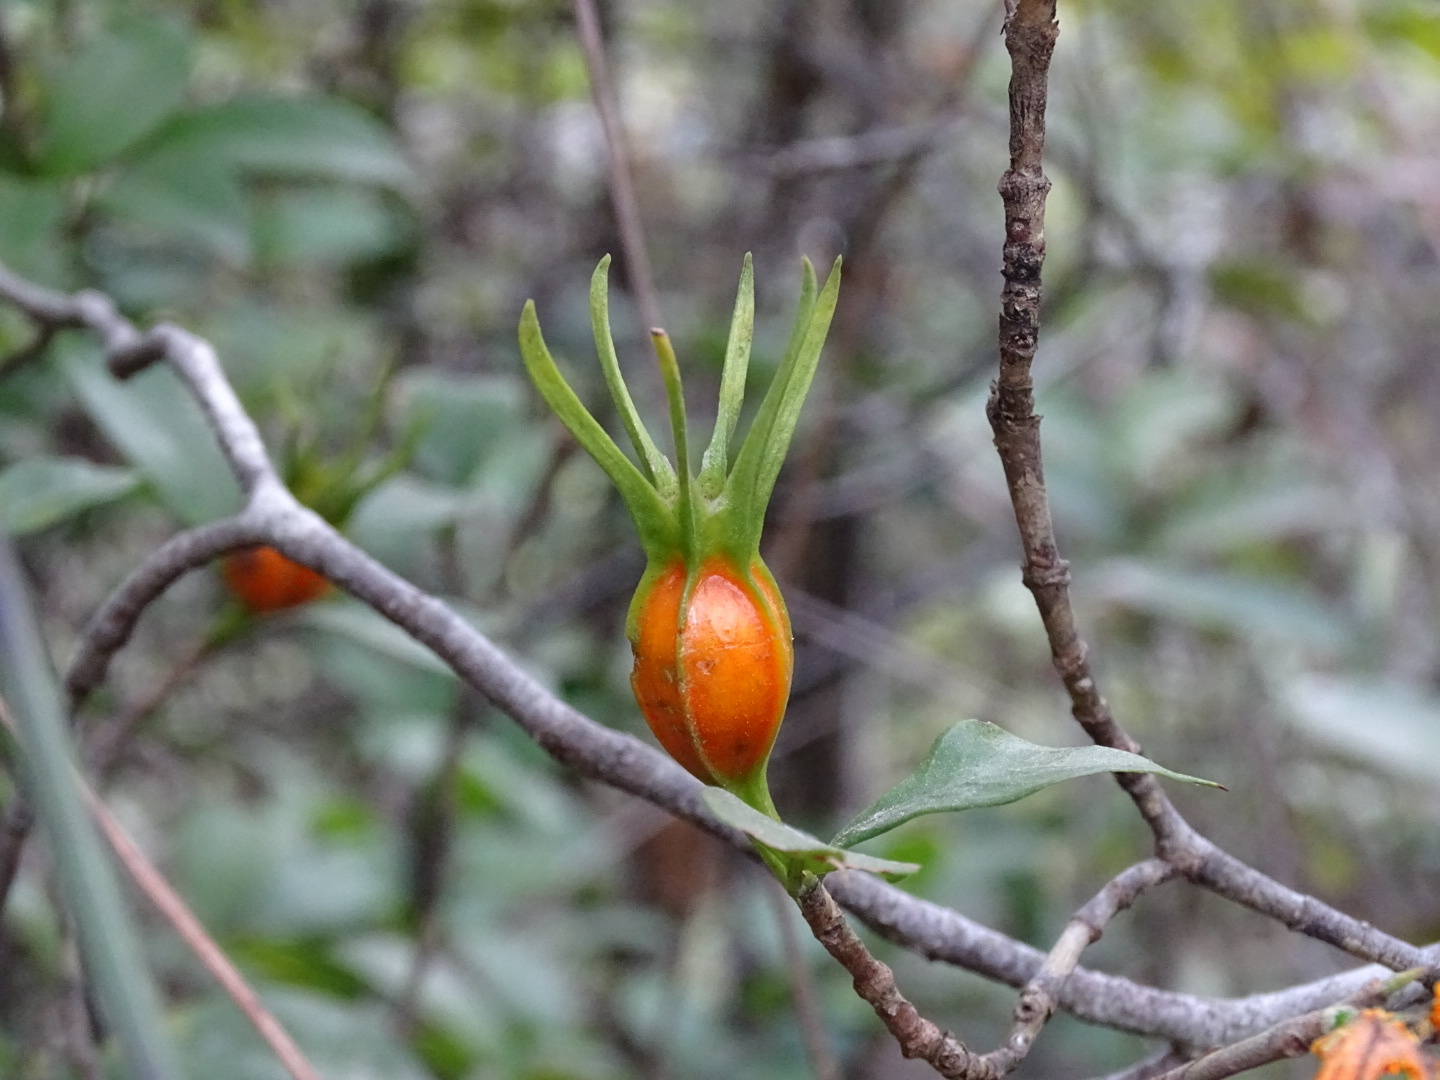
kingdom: Plantae
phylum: Tracheophyta
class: Magnoliopsida
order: Gentianales
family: Rubiaceae
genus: Gardenia
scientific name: Gardenia jasminoides
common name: Cape-jasmine
